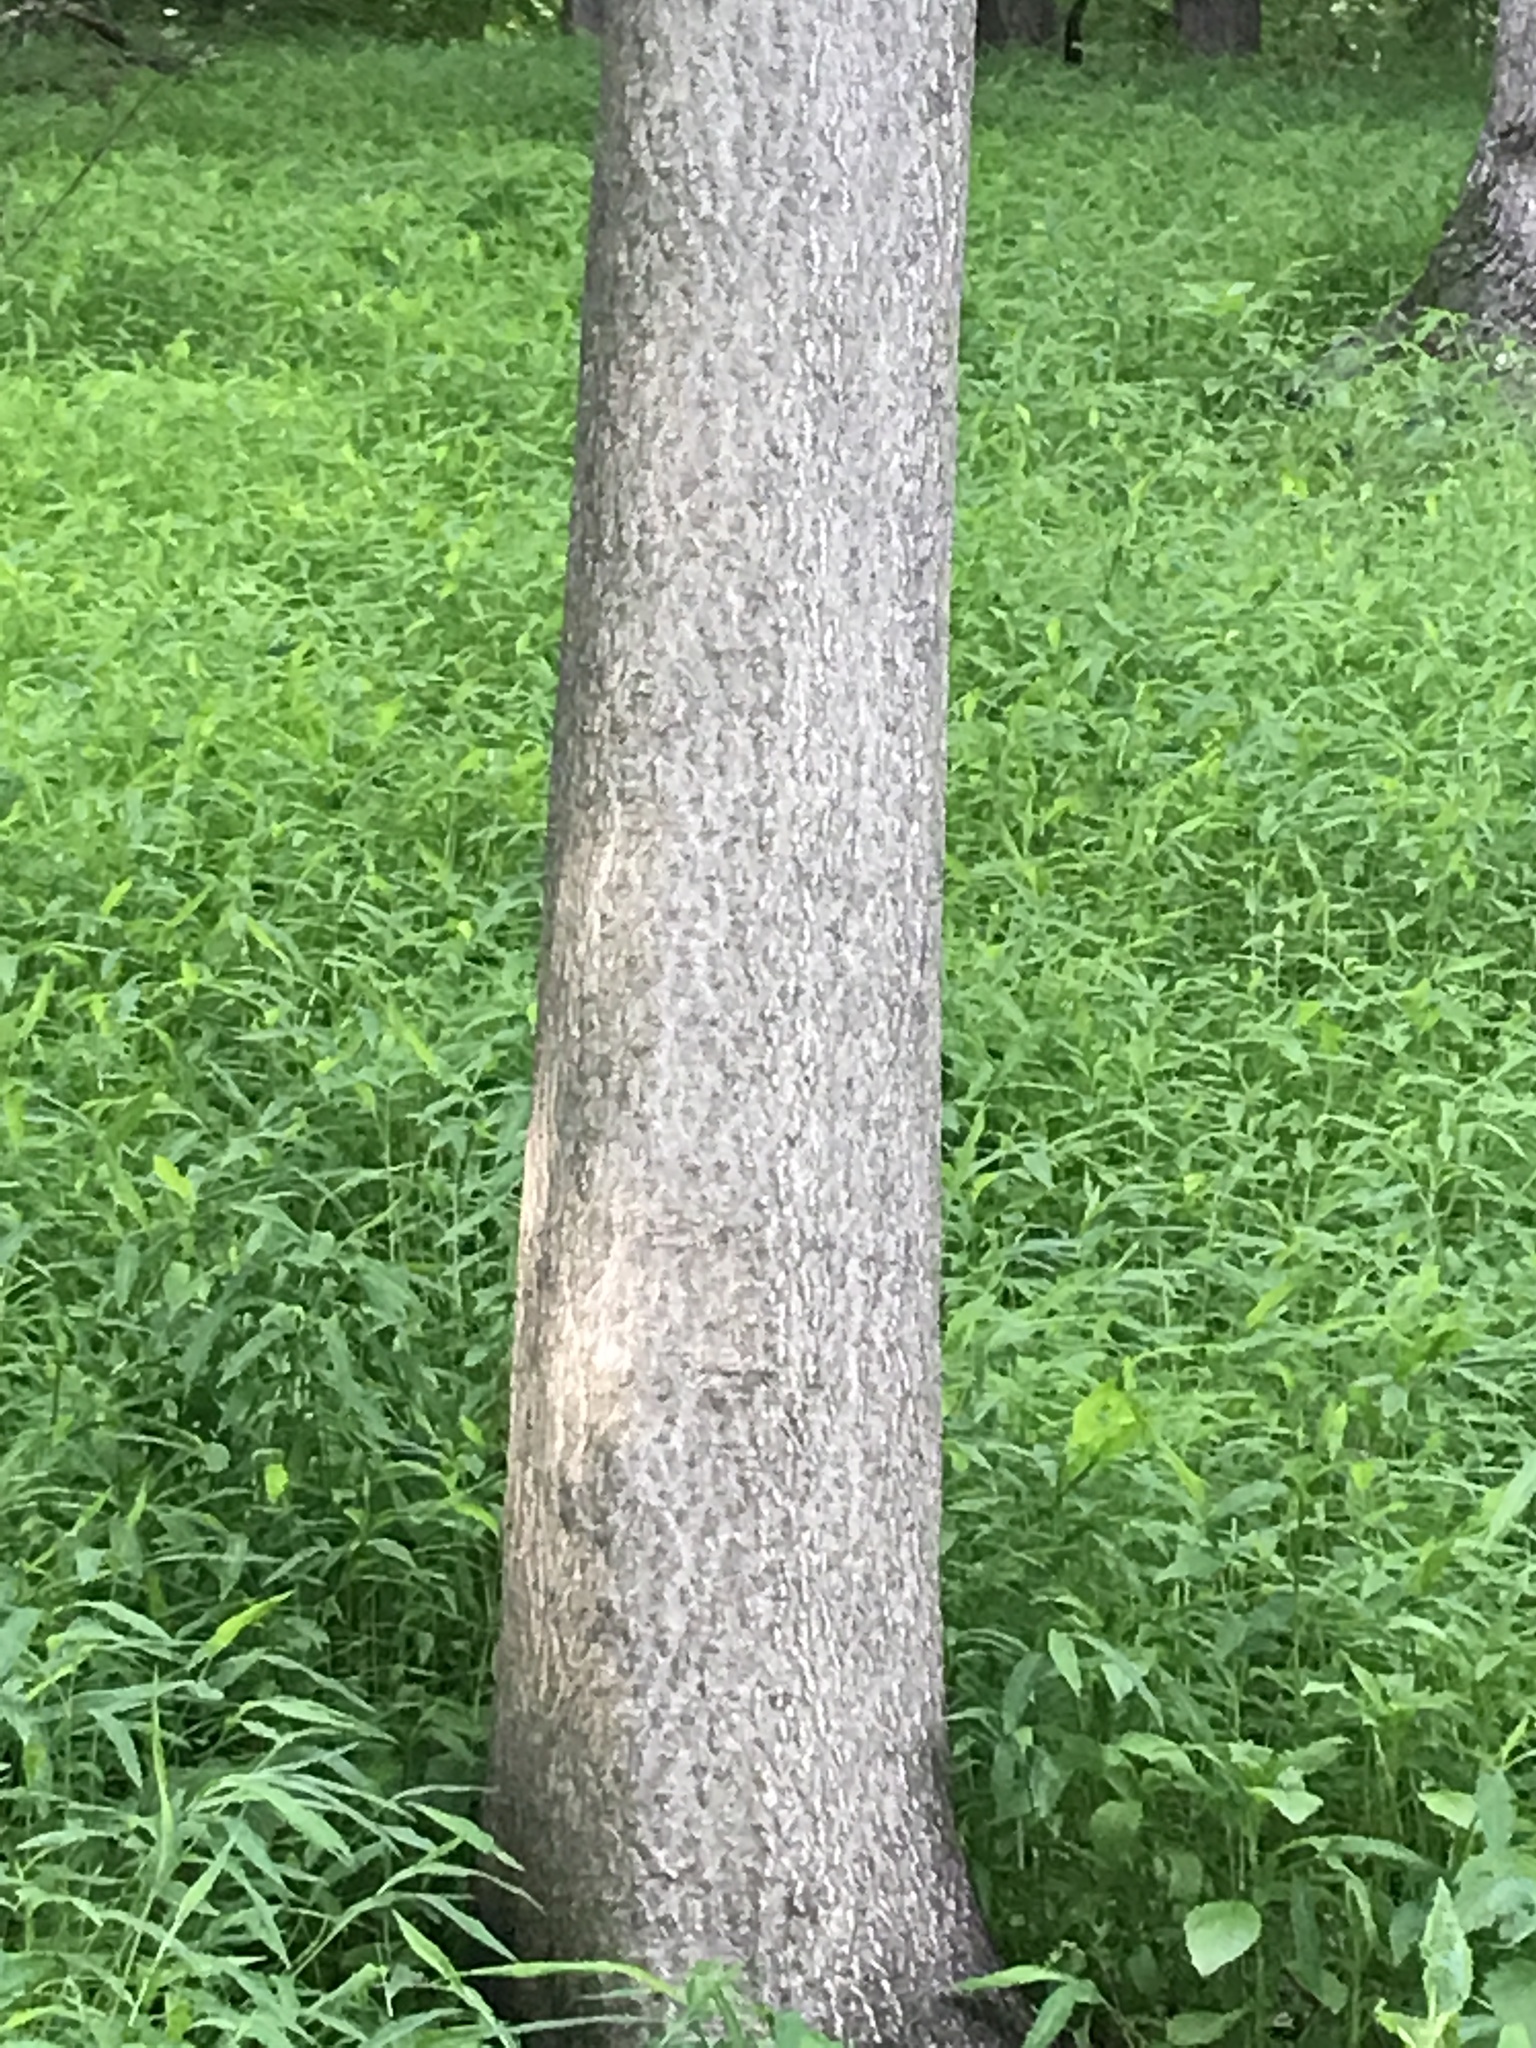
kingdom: Plantae
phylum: Tracheophyta
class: Magnoliopsida
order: Sapindales
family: Simaroubaceae
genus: Ailanthus
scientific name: Ailanthus altissima
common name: Tree-of-heaven
